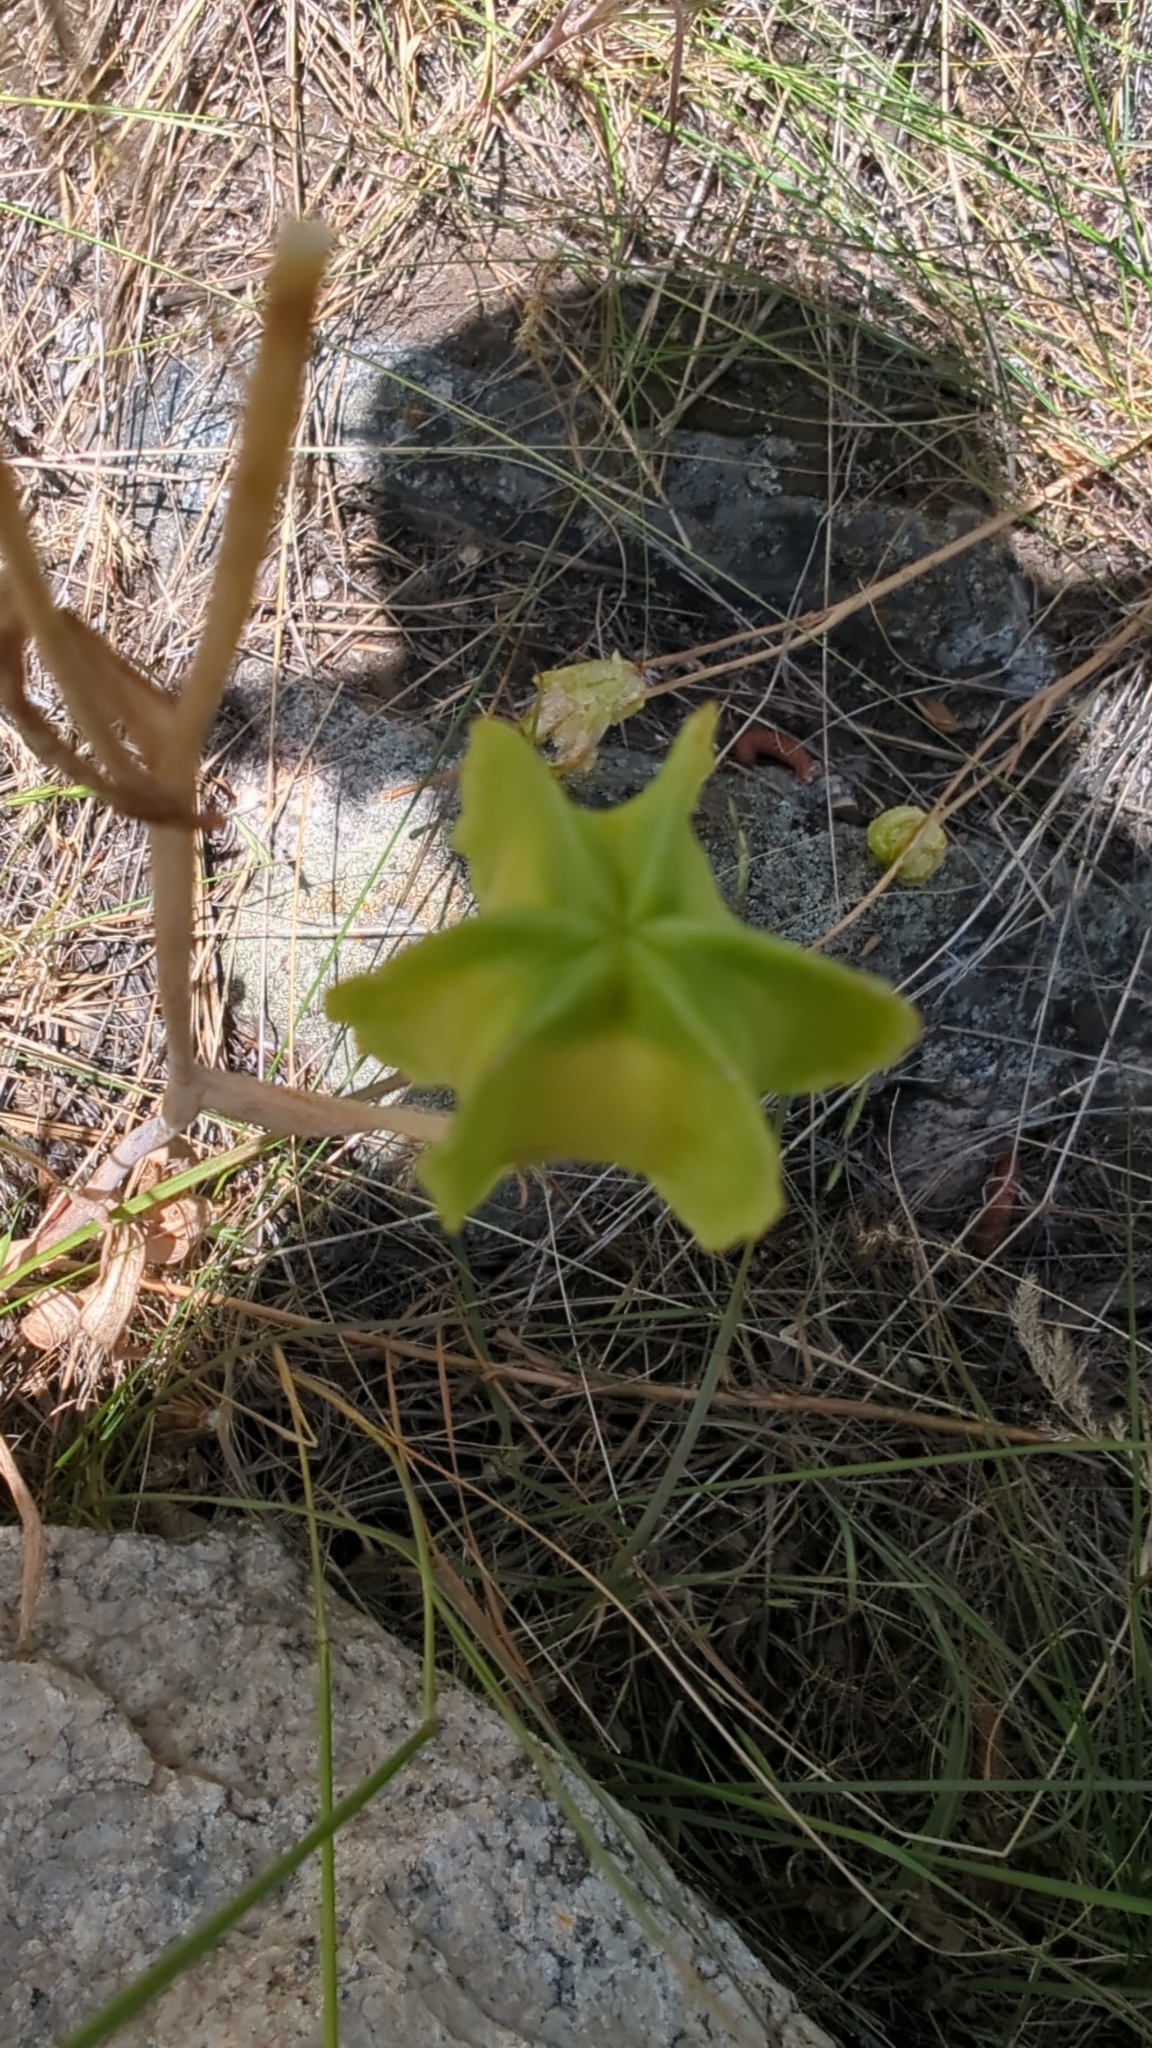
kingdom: Plantae
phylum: Tracheophyta
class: Liliopsida
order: Liliales
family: Liliaceae
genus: Fritillaria
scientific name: Fritillaria affinis
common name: Ojai fritillary
